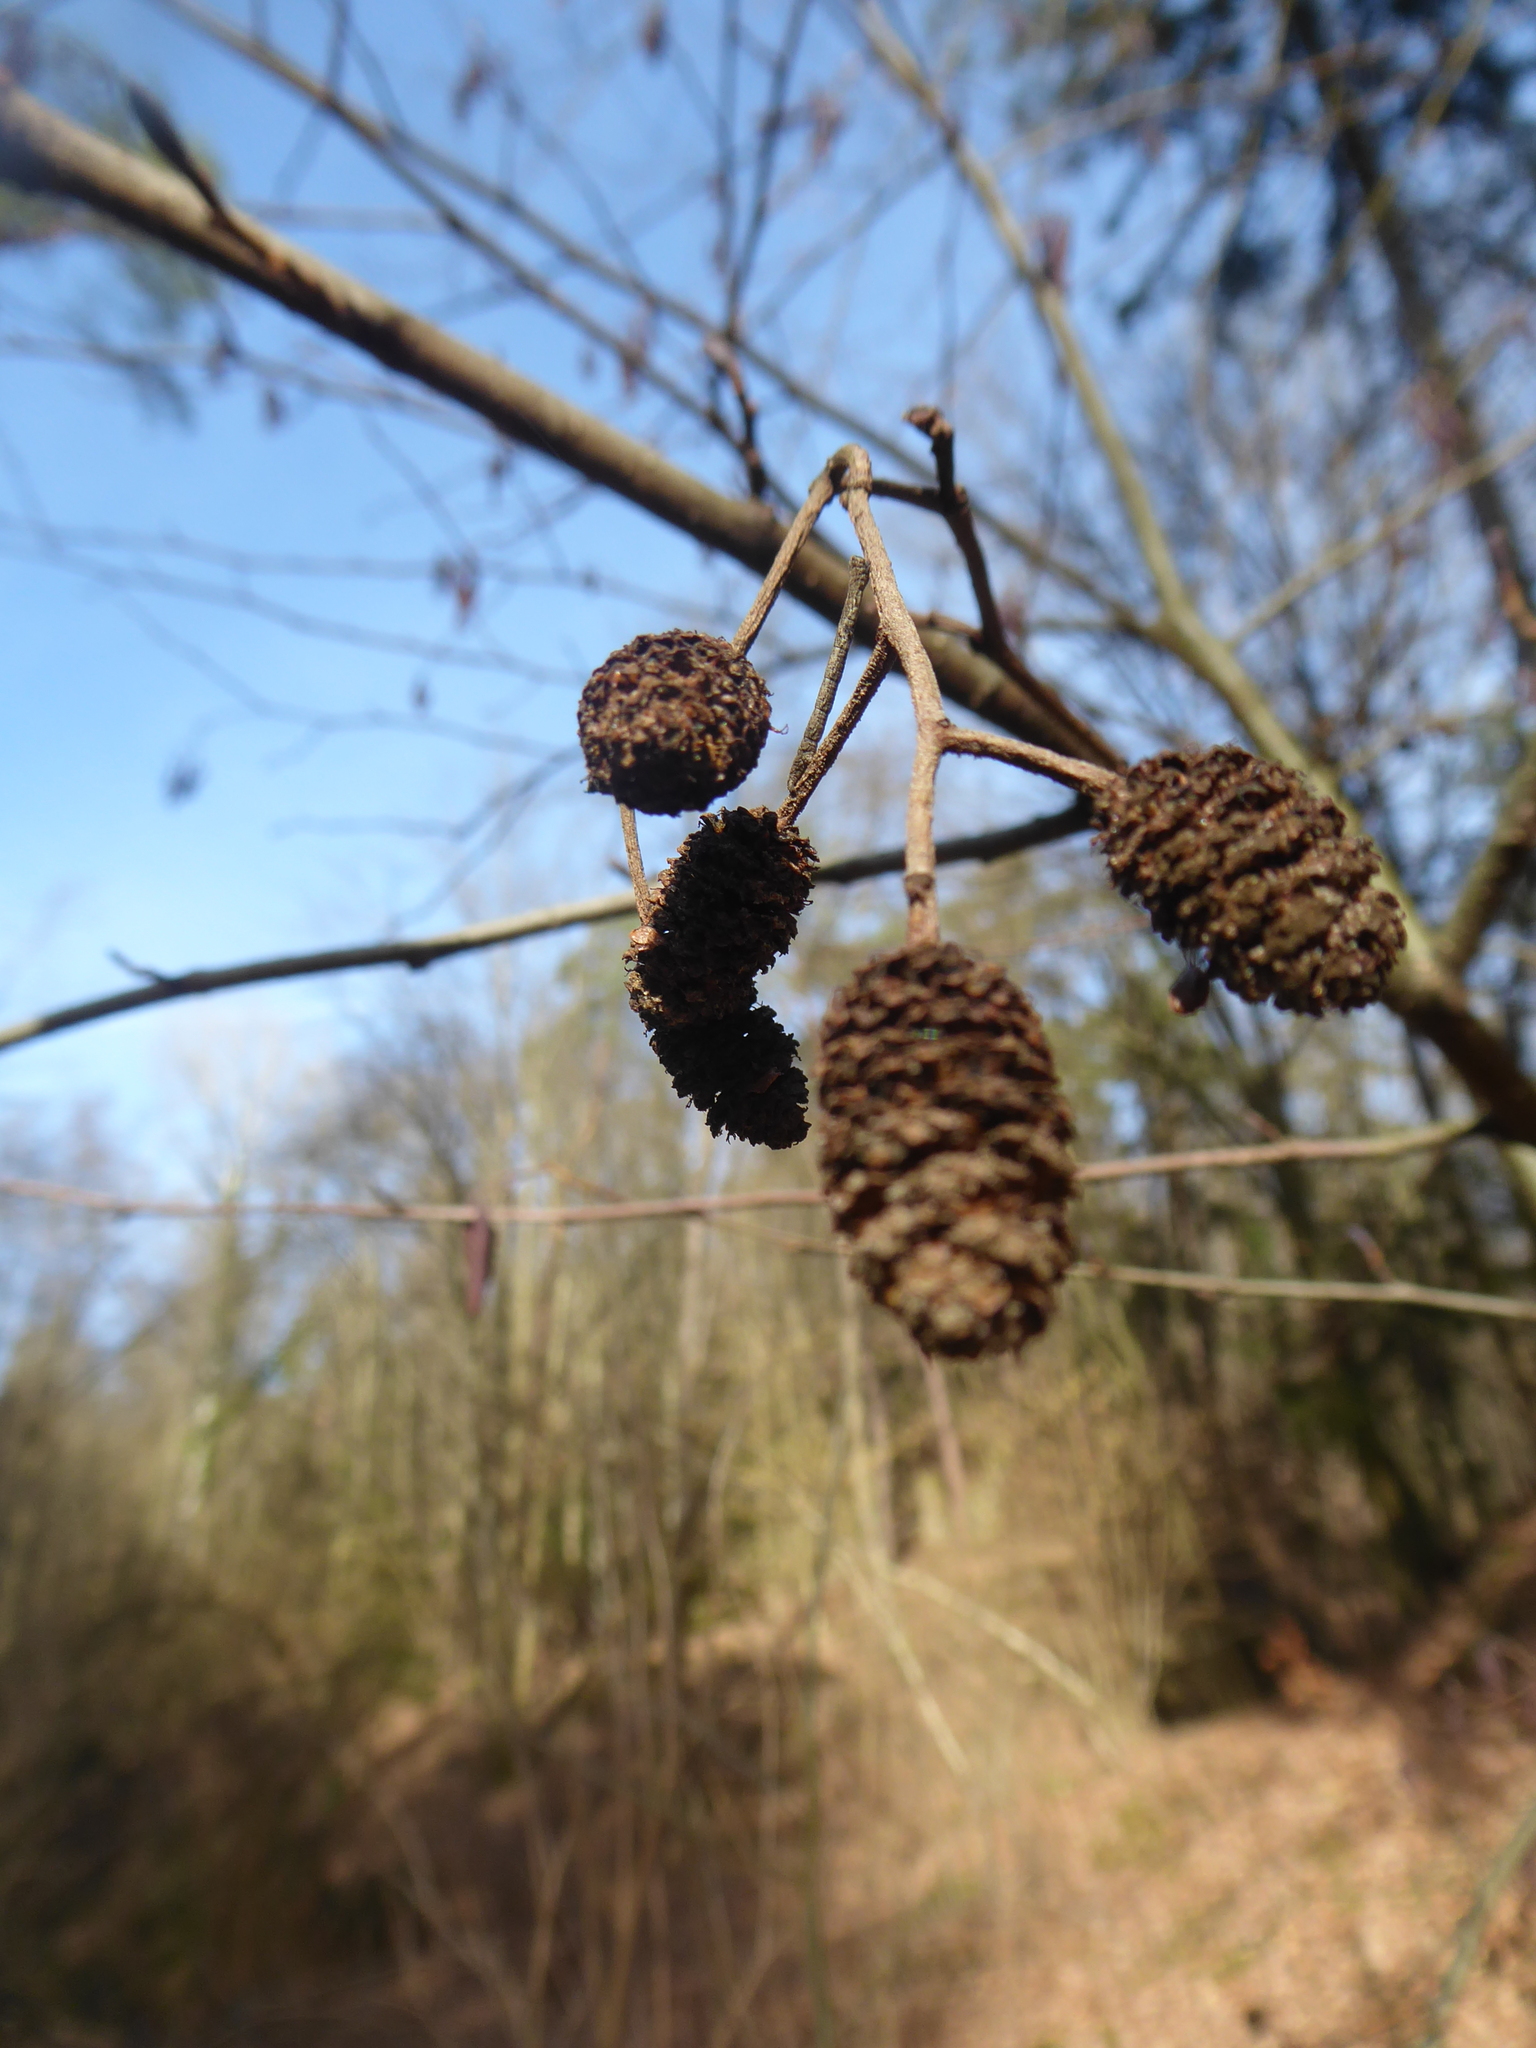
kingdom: Plantae
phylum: Tracheophyta
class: Magnoliopsida
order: Fagales
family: Betulaceae
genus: Alnus
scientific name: Alnus glutinosa
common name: Black alder
